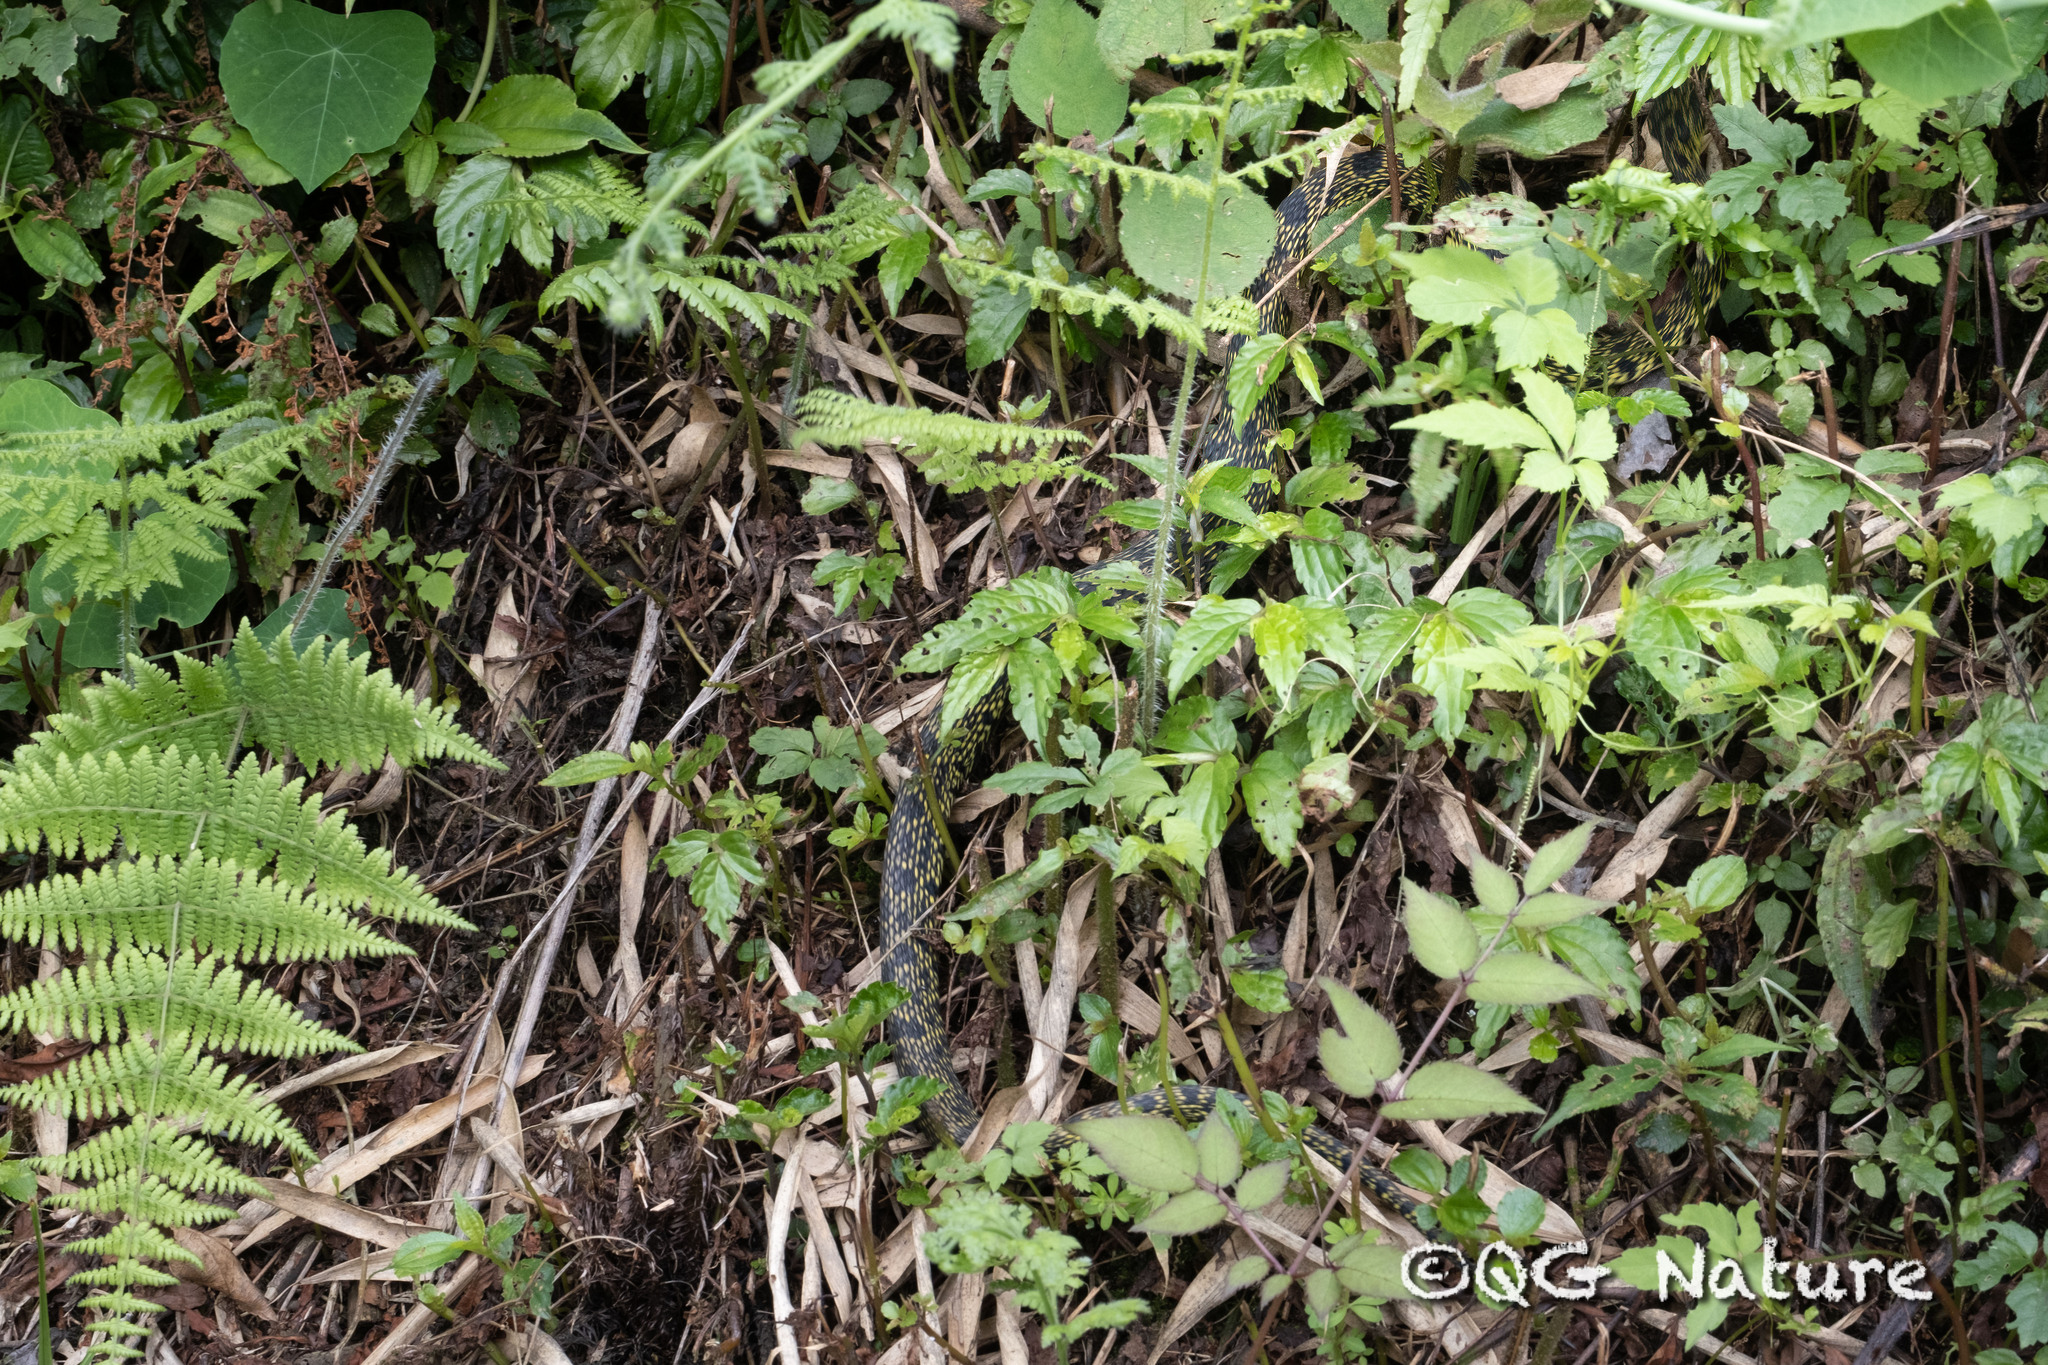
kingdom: Animalia
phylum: Chordata
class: Squamata
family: Viperidae
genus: Protobothrops
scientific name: Protobothrops jerdonii
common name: Jerdon's pitviper
